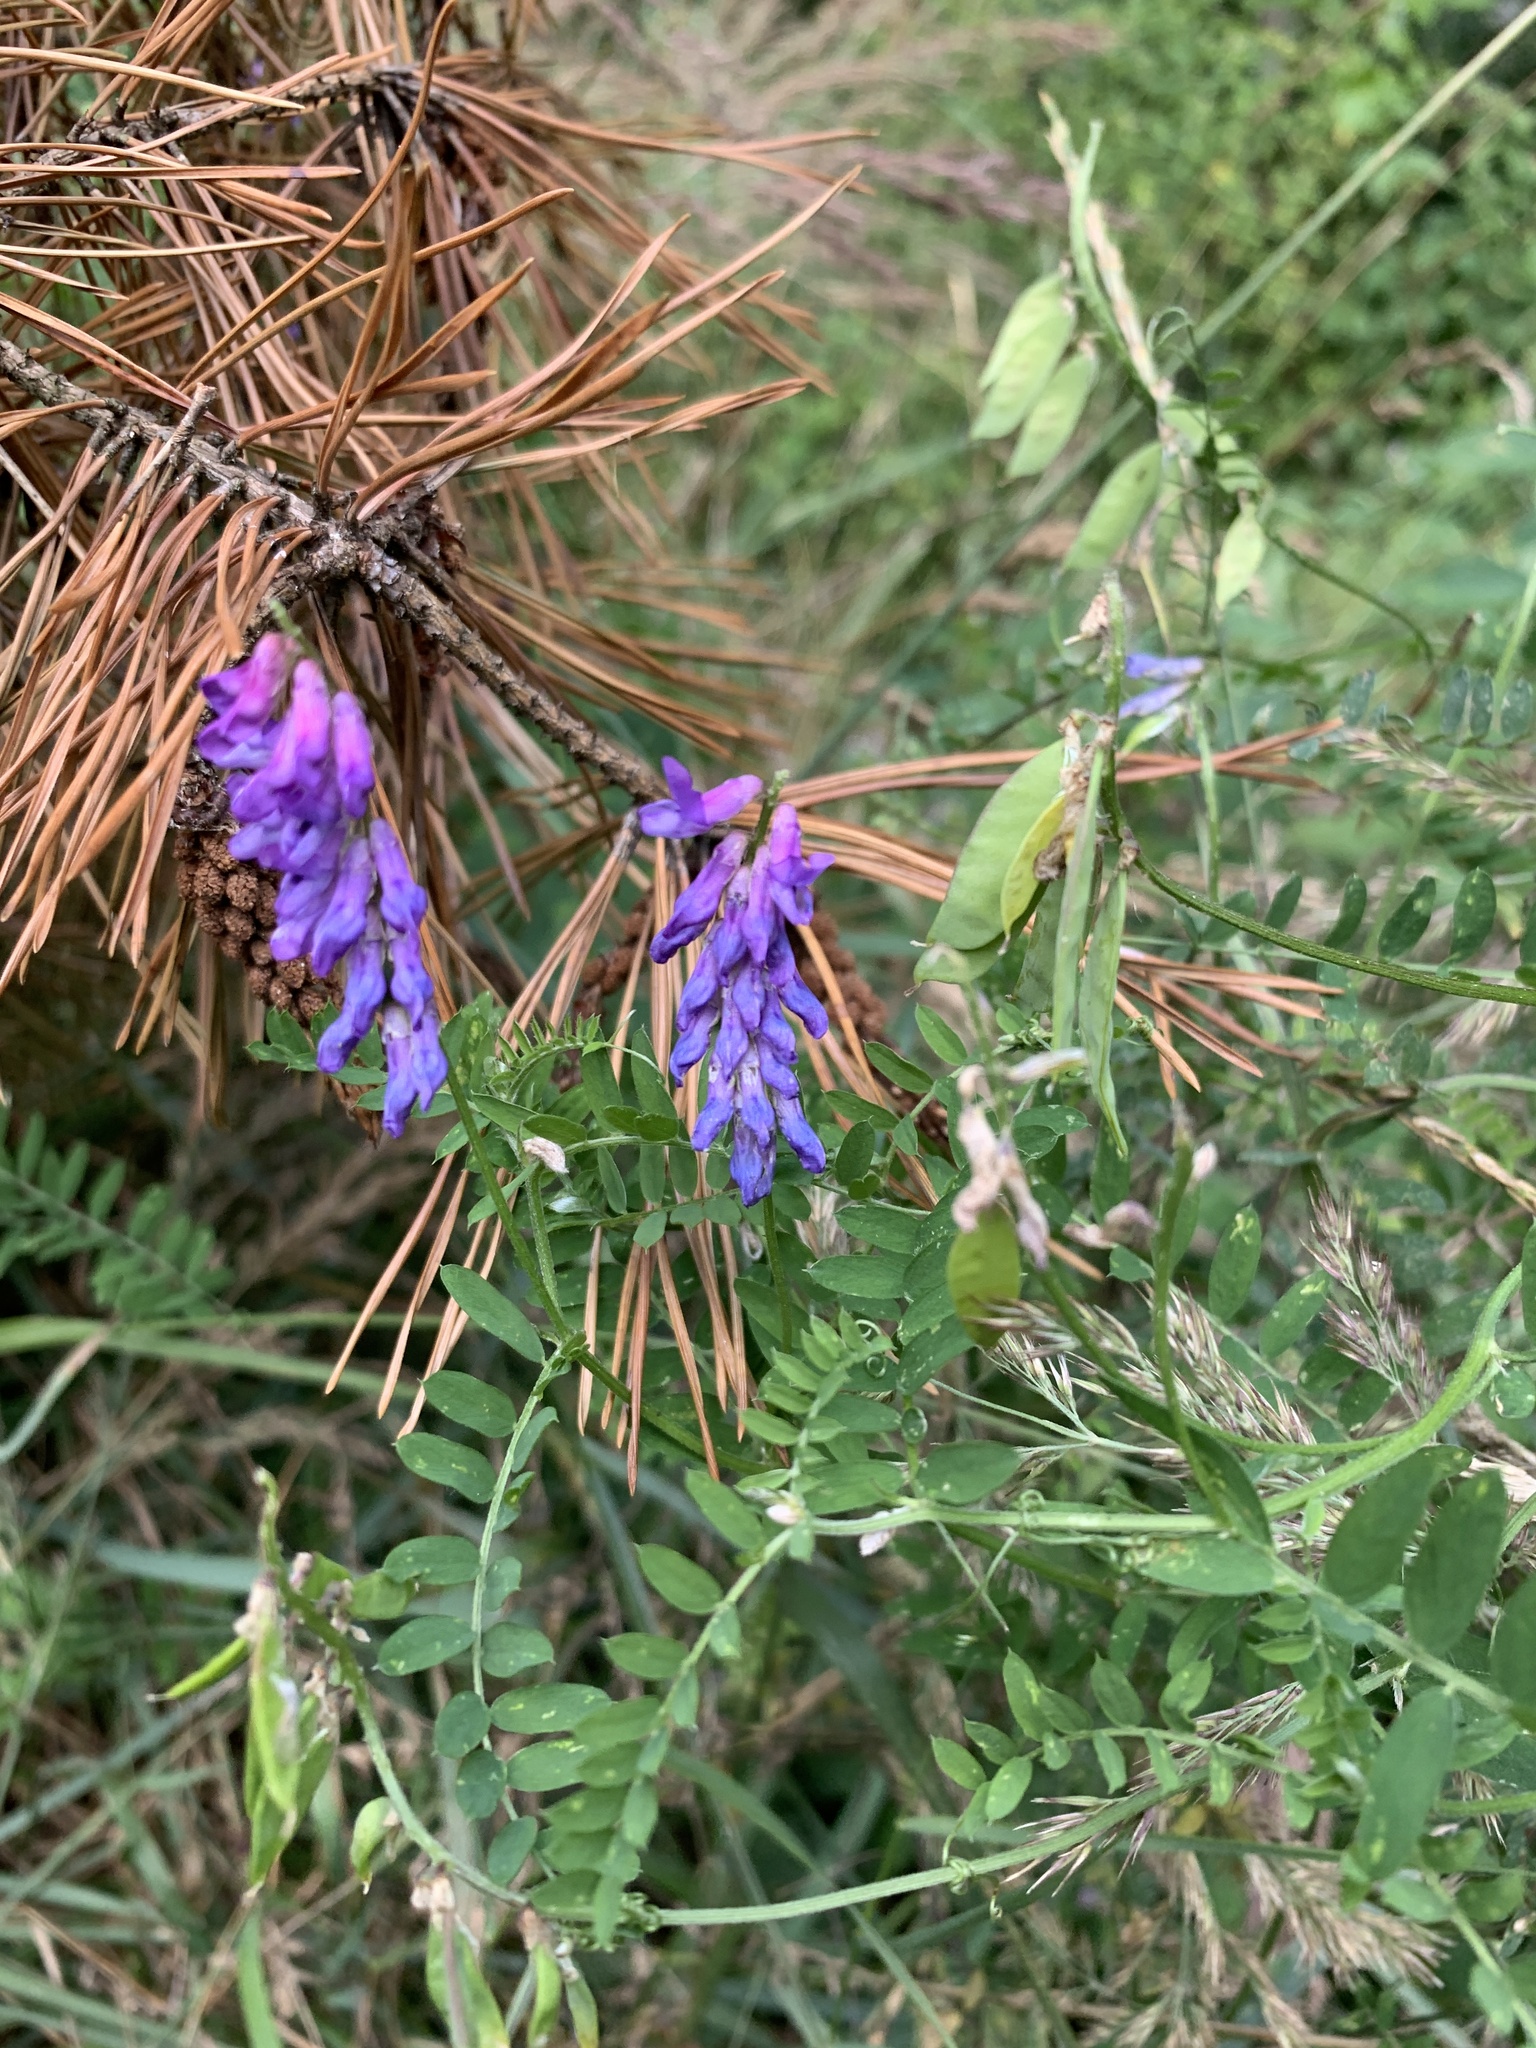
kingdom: Plantae
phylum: Tracheophyta
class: Magnoliopsida
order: Fabales
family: Fabaceae
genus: Vicia
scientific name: Vicia cracca
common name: Bird vetch
